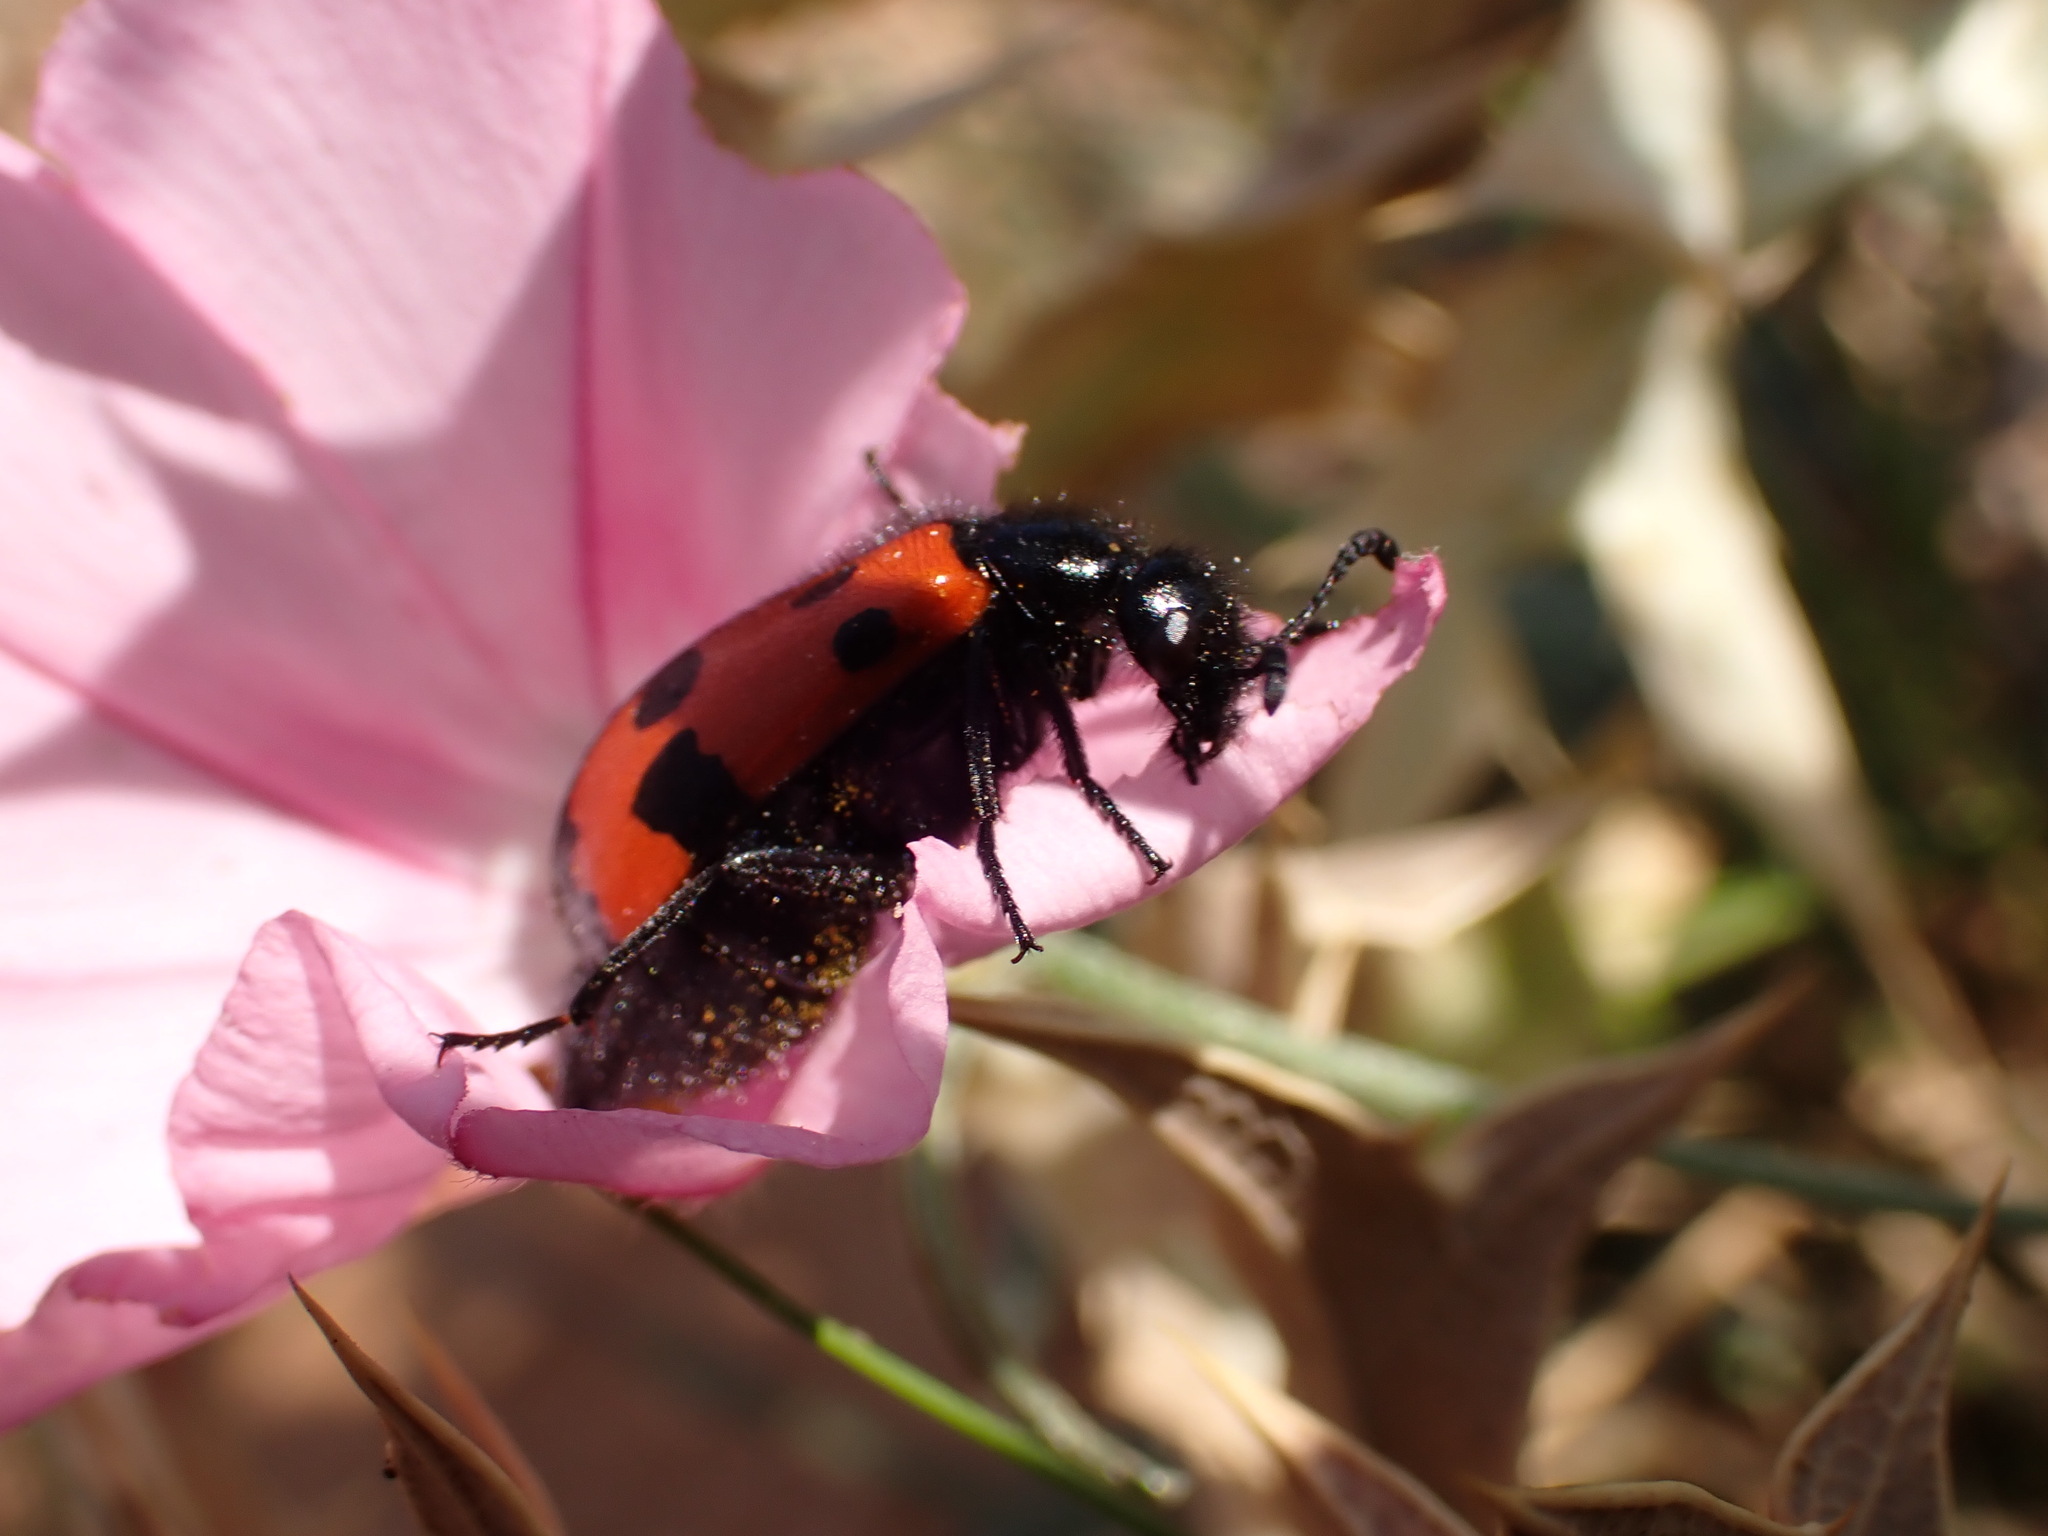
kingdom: Animalia
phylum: Arthropoda
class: Insecta
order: Coleoptera
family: Meloidae
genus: Mylabris
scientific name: Mylabris quadripunctata
